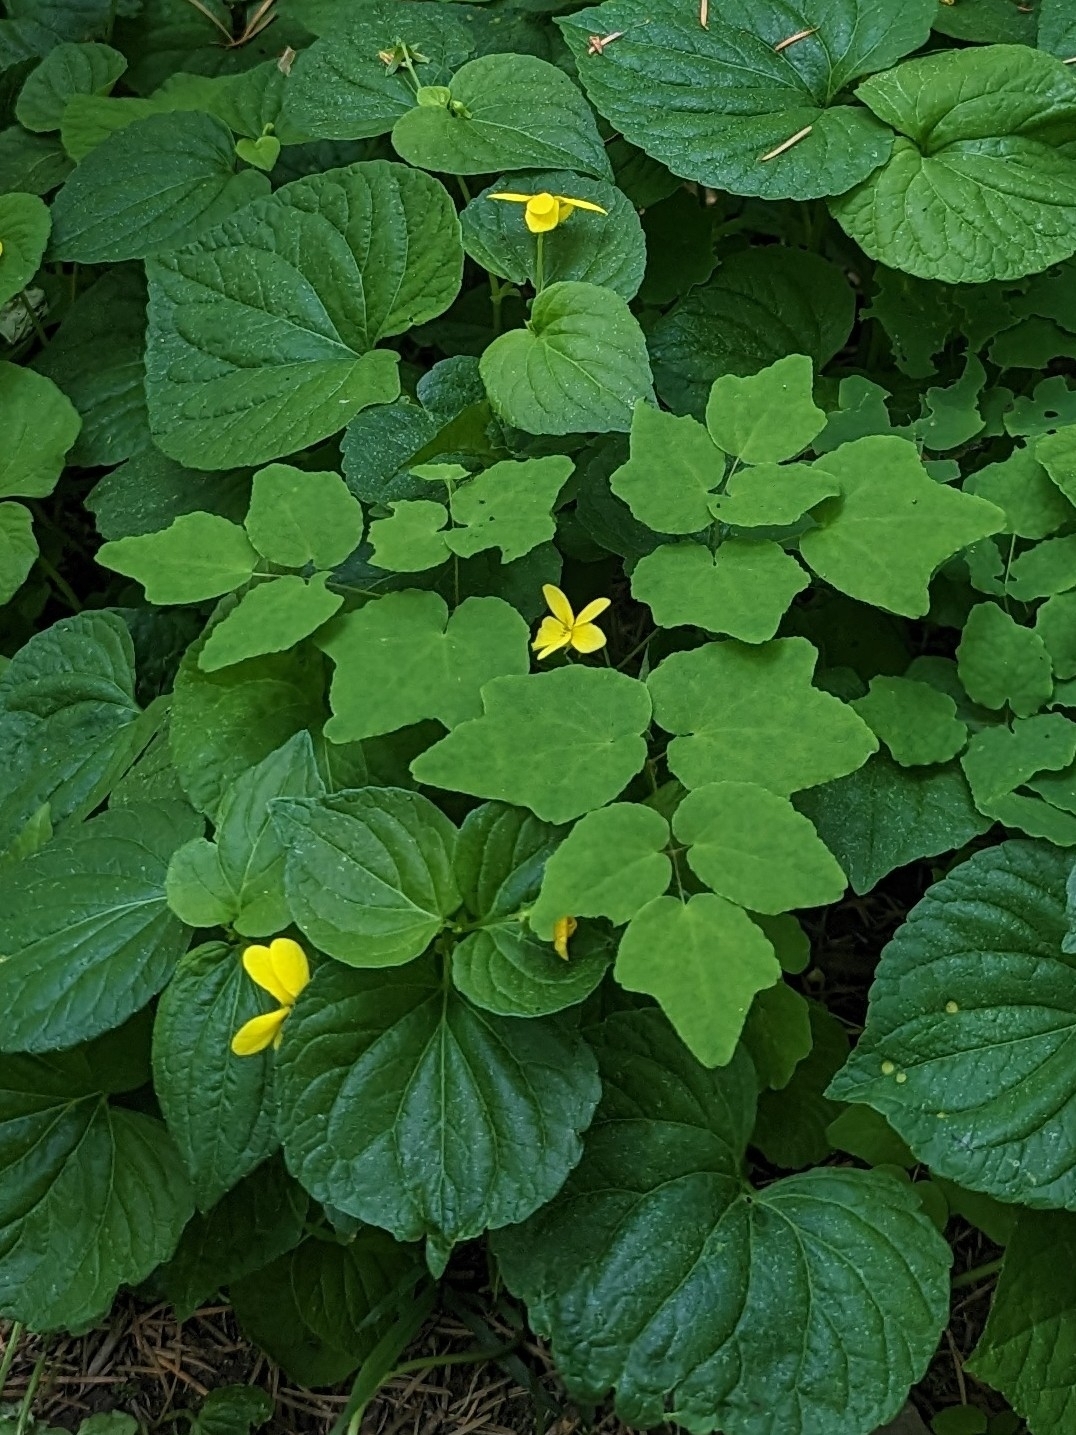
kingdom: Plantae
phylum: Tracheophyta
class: Magnoliopsida
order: Malpighiales
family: Violaceae
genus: Viola
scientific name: Viola glabella
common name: Stream violet
